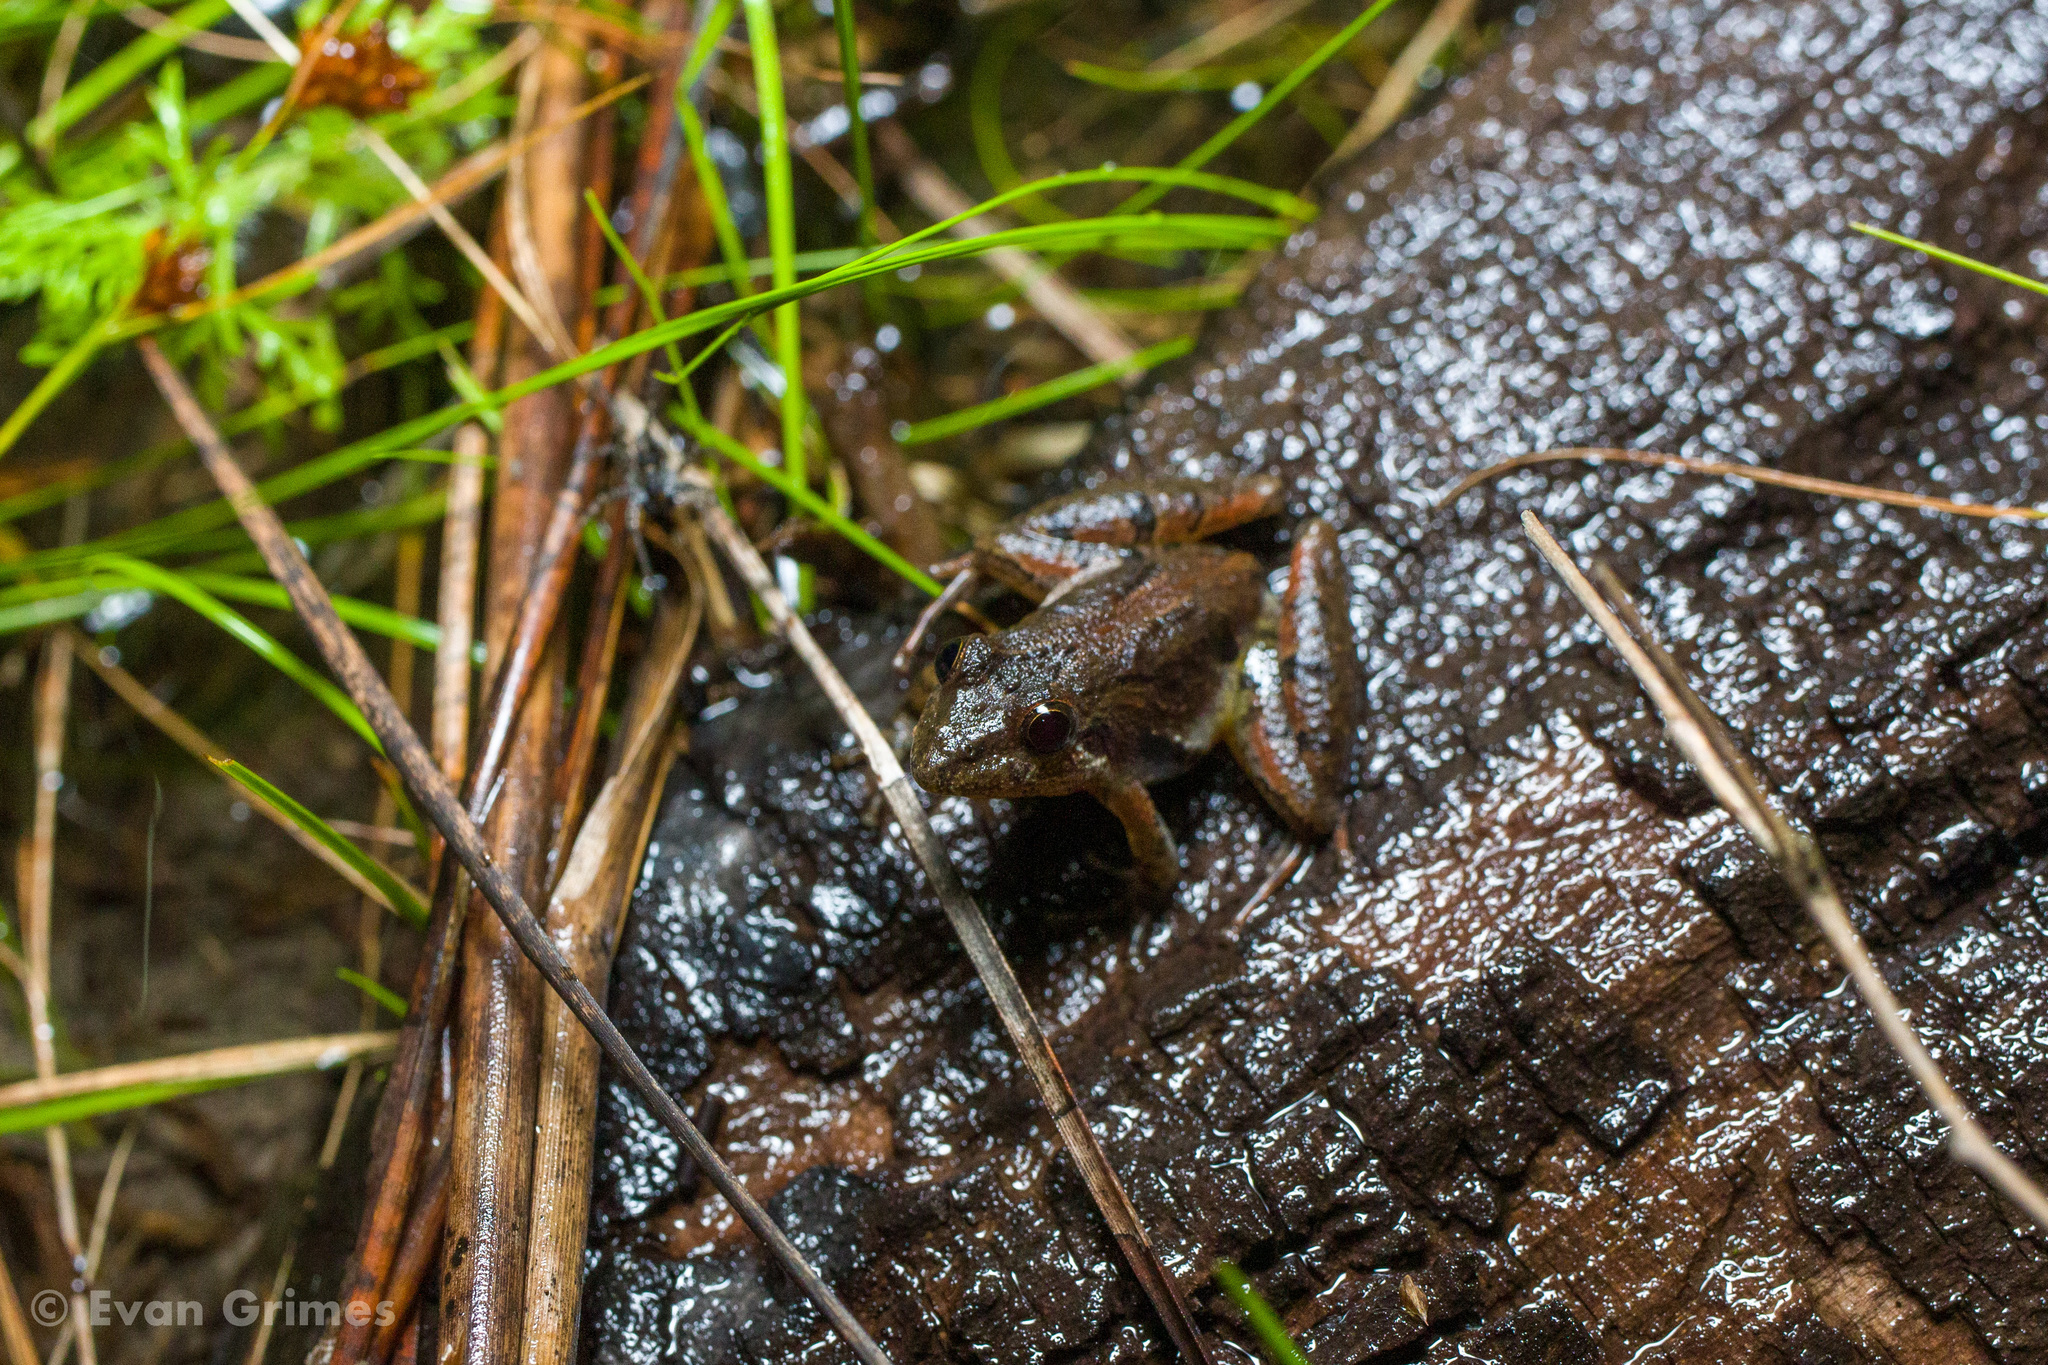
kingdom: Animalia
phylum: Chordata
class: Amphibia
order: Anura
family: Hylidae
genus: Acris
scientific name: Acris gryllus
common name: Southern cricket frog
